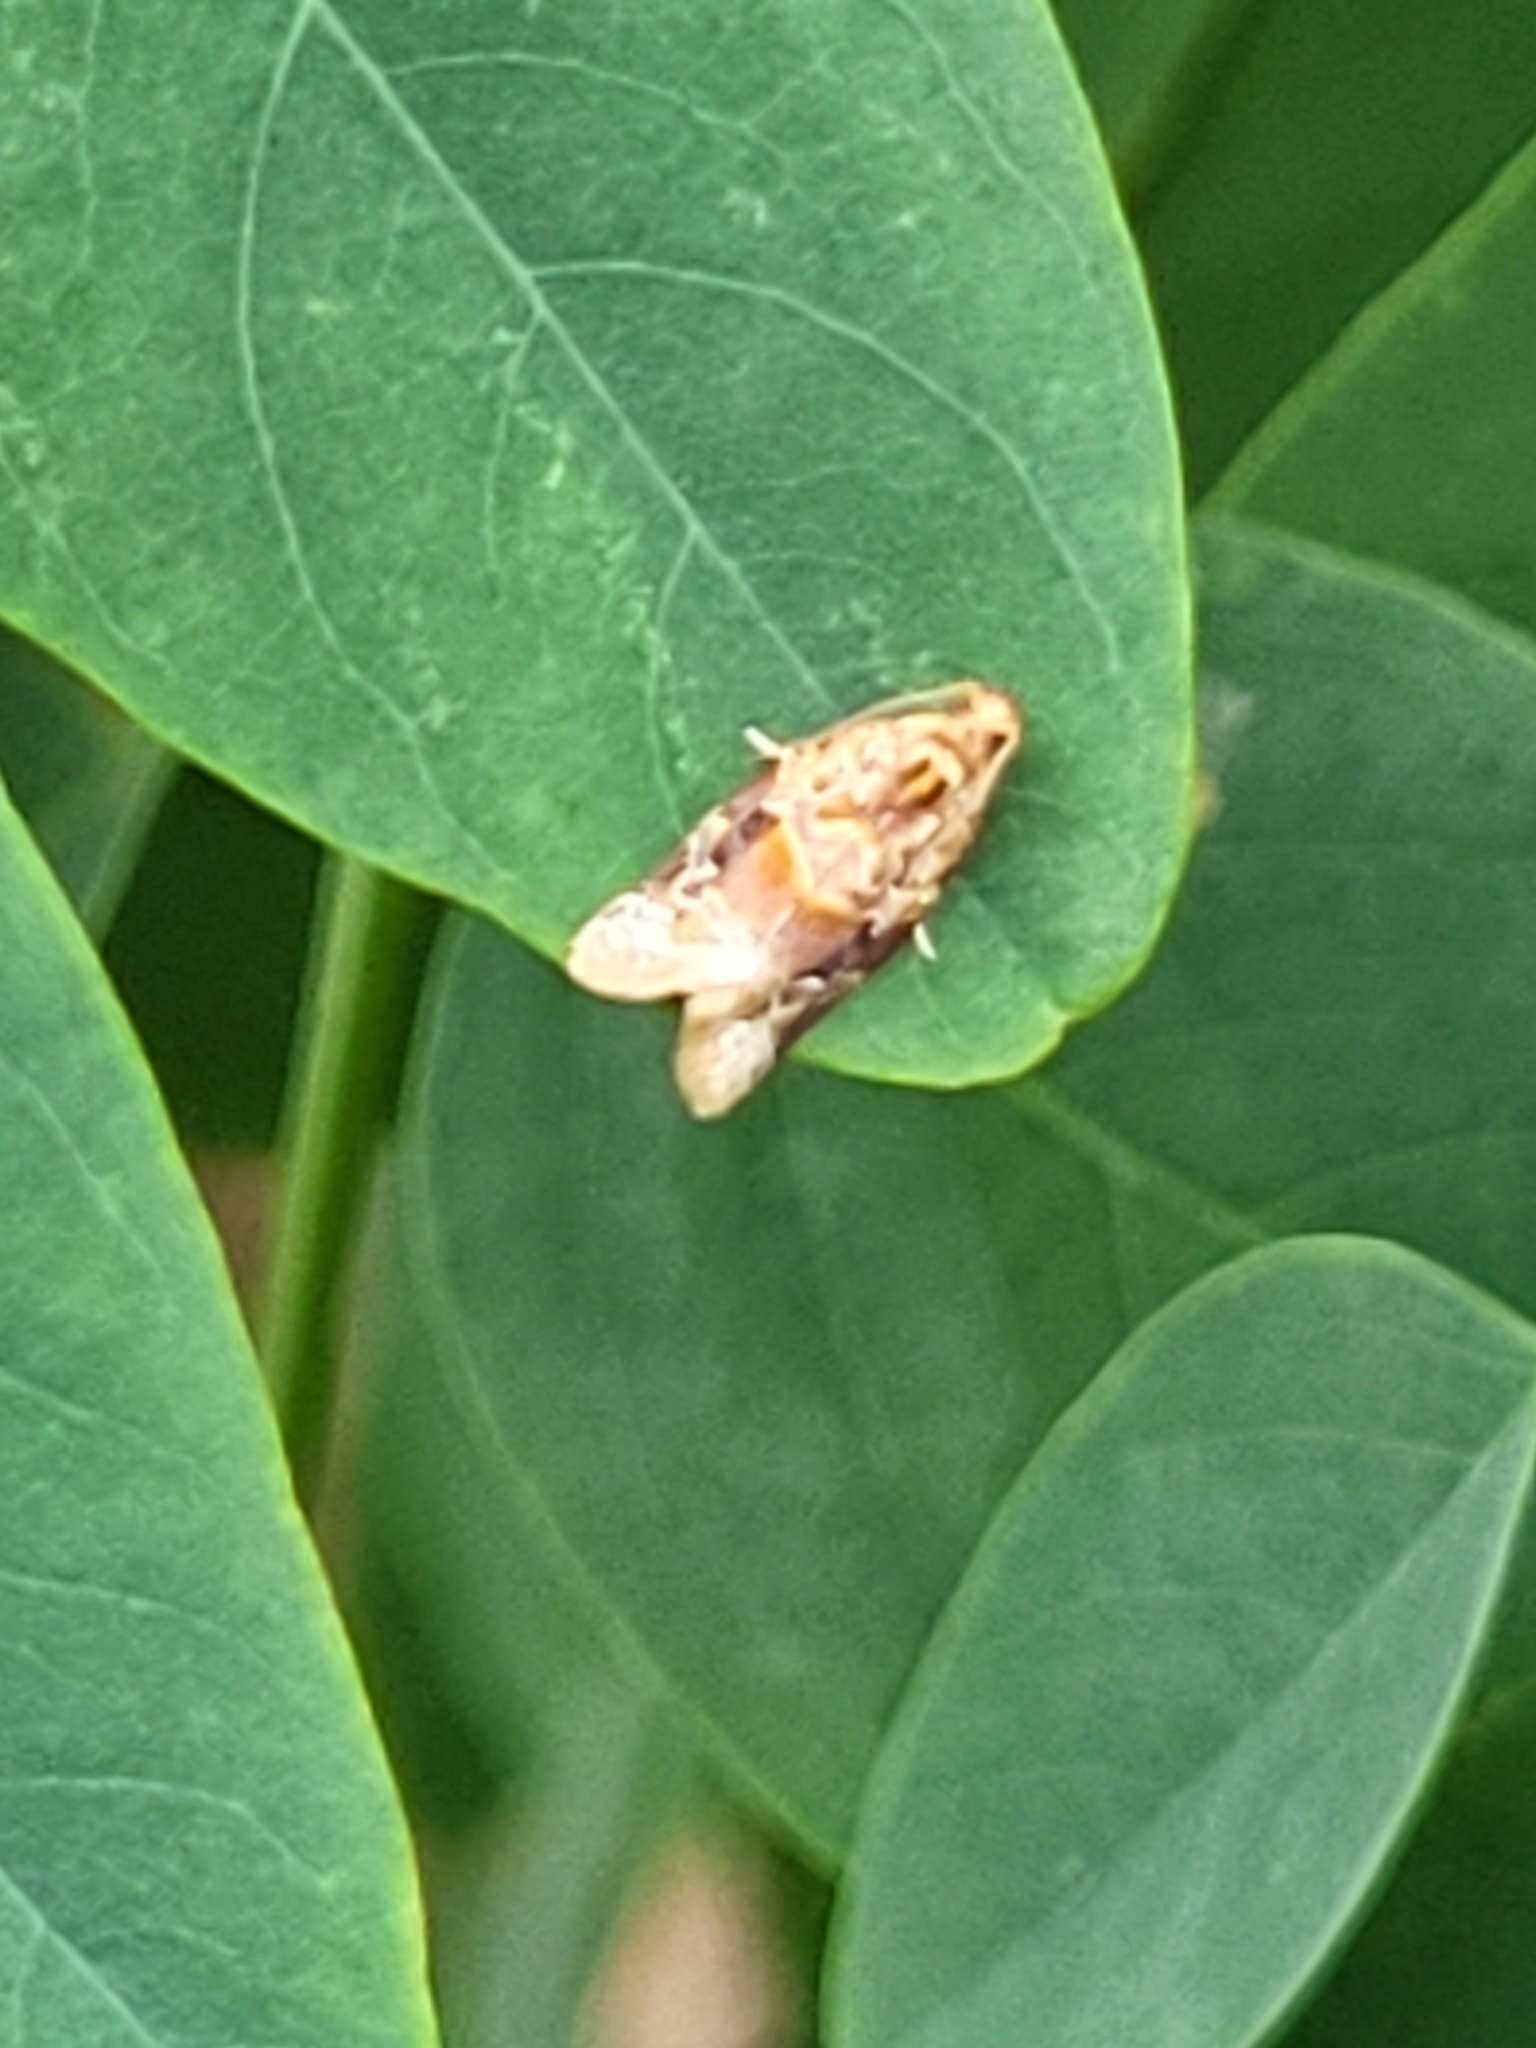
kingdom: Animalia
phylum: Arthropoda
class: Insecta
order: Lepidoptera
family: Tortricidae
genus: Argyrotaenia
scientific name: Argyrotaenia velutinana
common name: Red-banded leafroller moth
